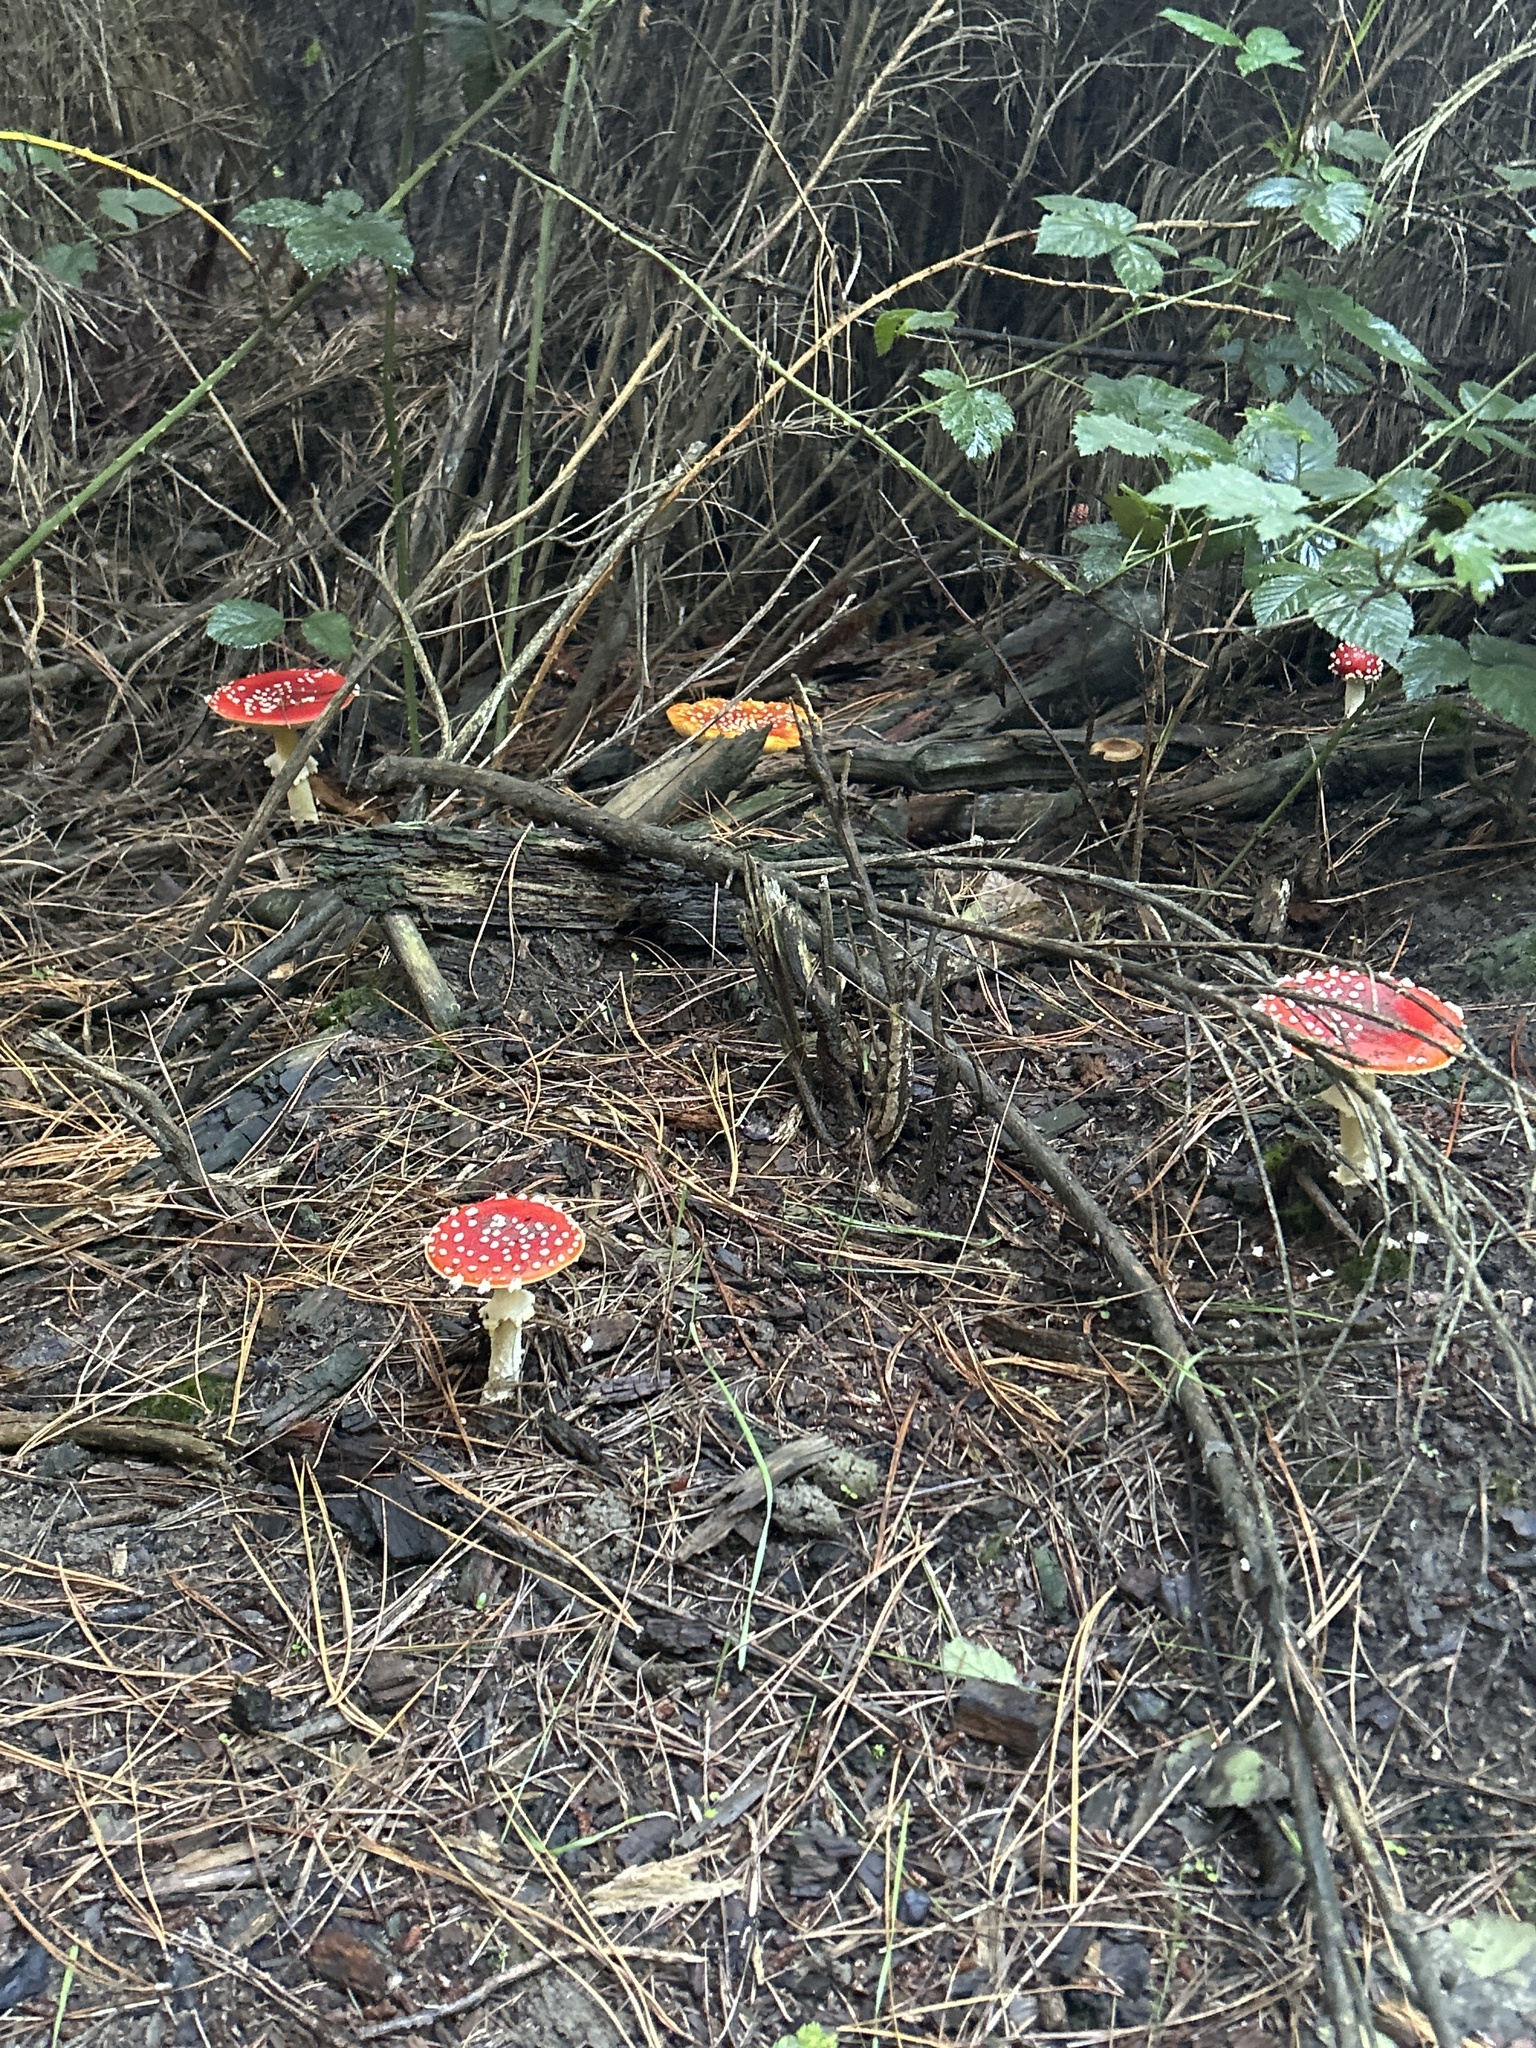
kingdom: Fungi
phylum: Basidiomycota
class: Agaricomycetes
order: Agaricales
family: Amanitaceae
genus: Amanita
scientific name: Amanita muscaria
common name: Fly agaric
